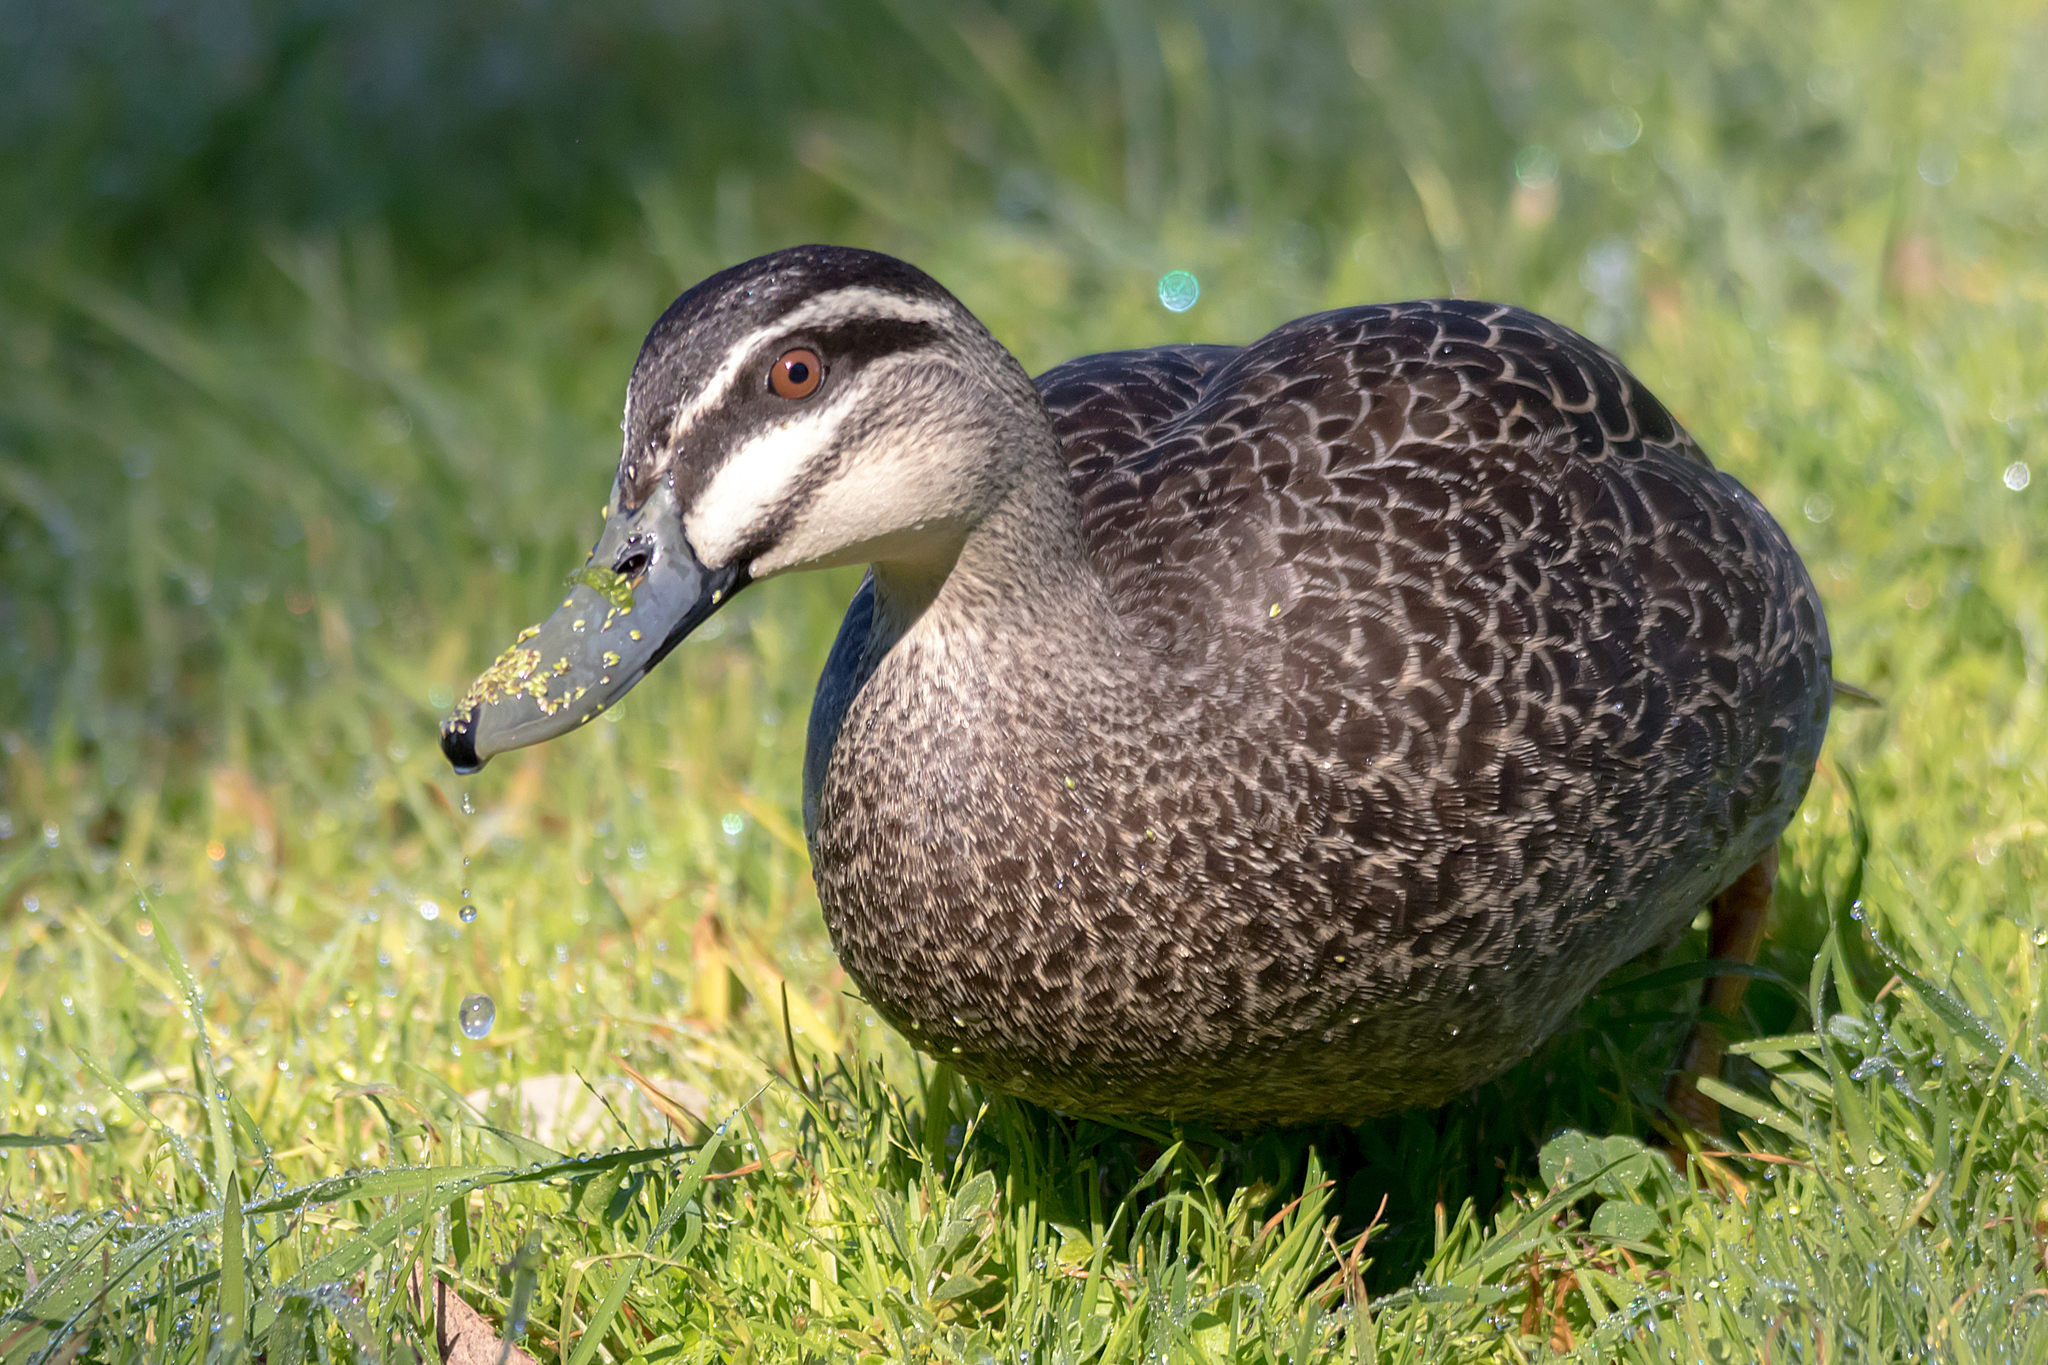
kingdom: Animalia
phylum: Chordata
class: Aves
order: Anseriformes
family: Anatidae
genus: Anas
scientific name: Anas
